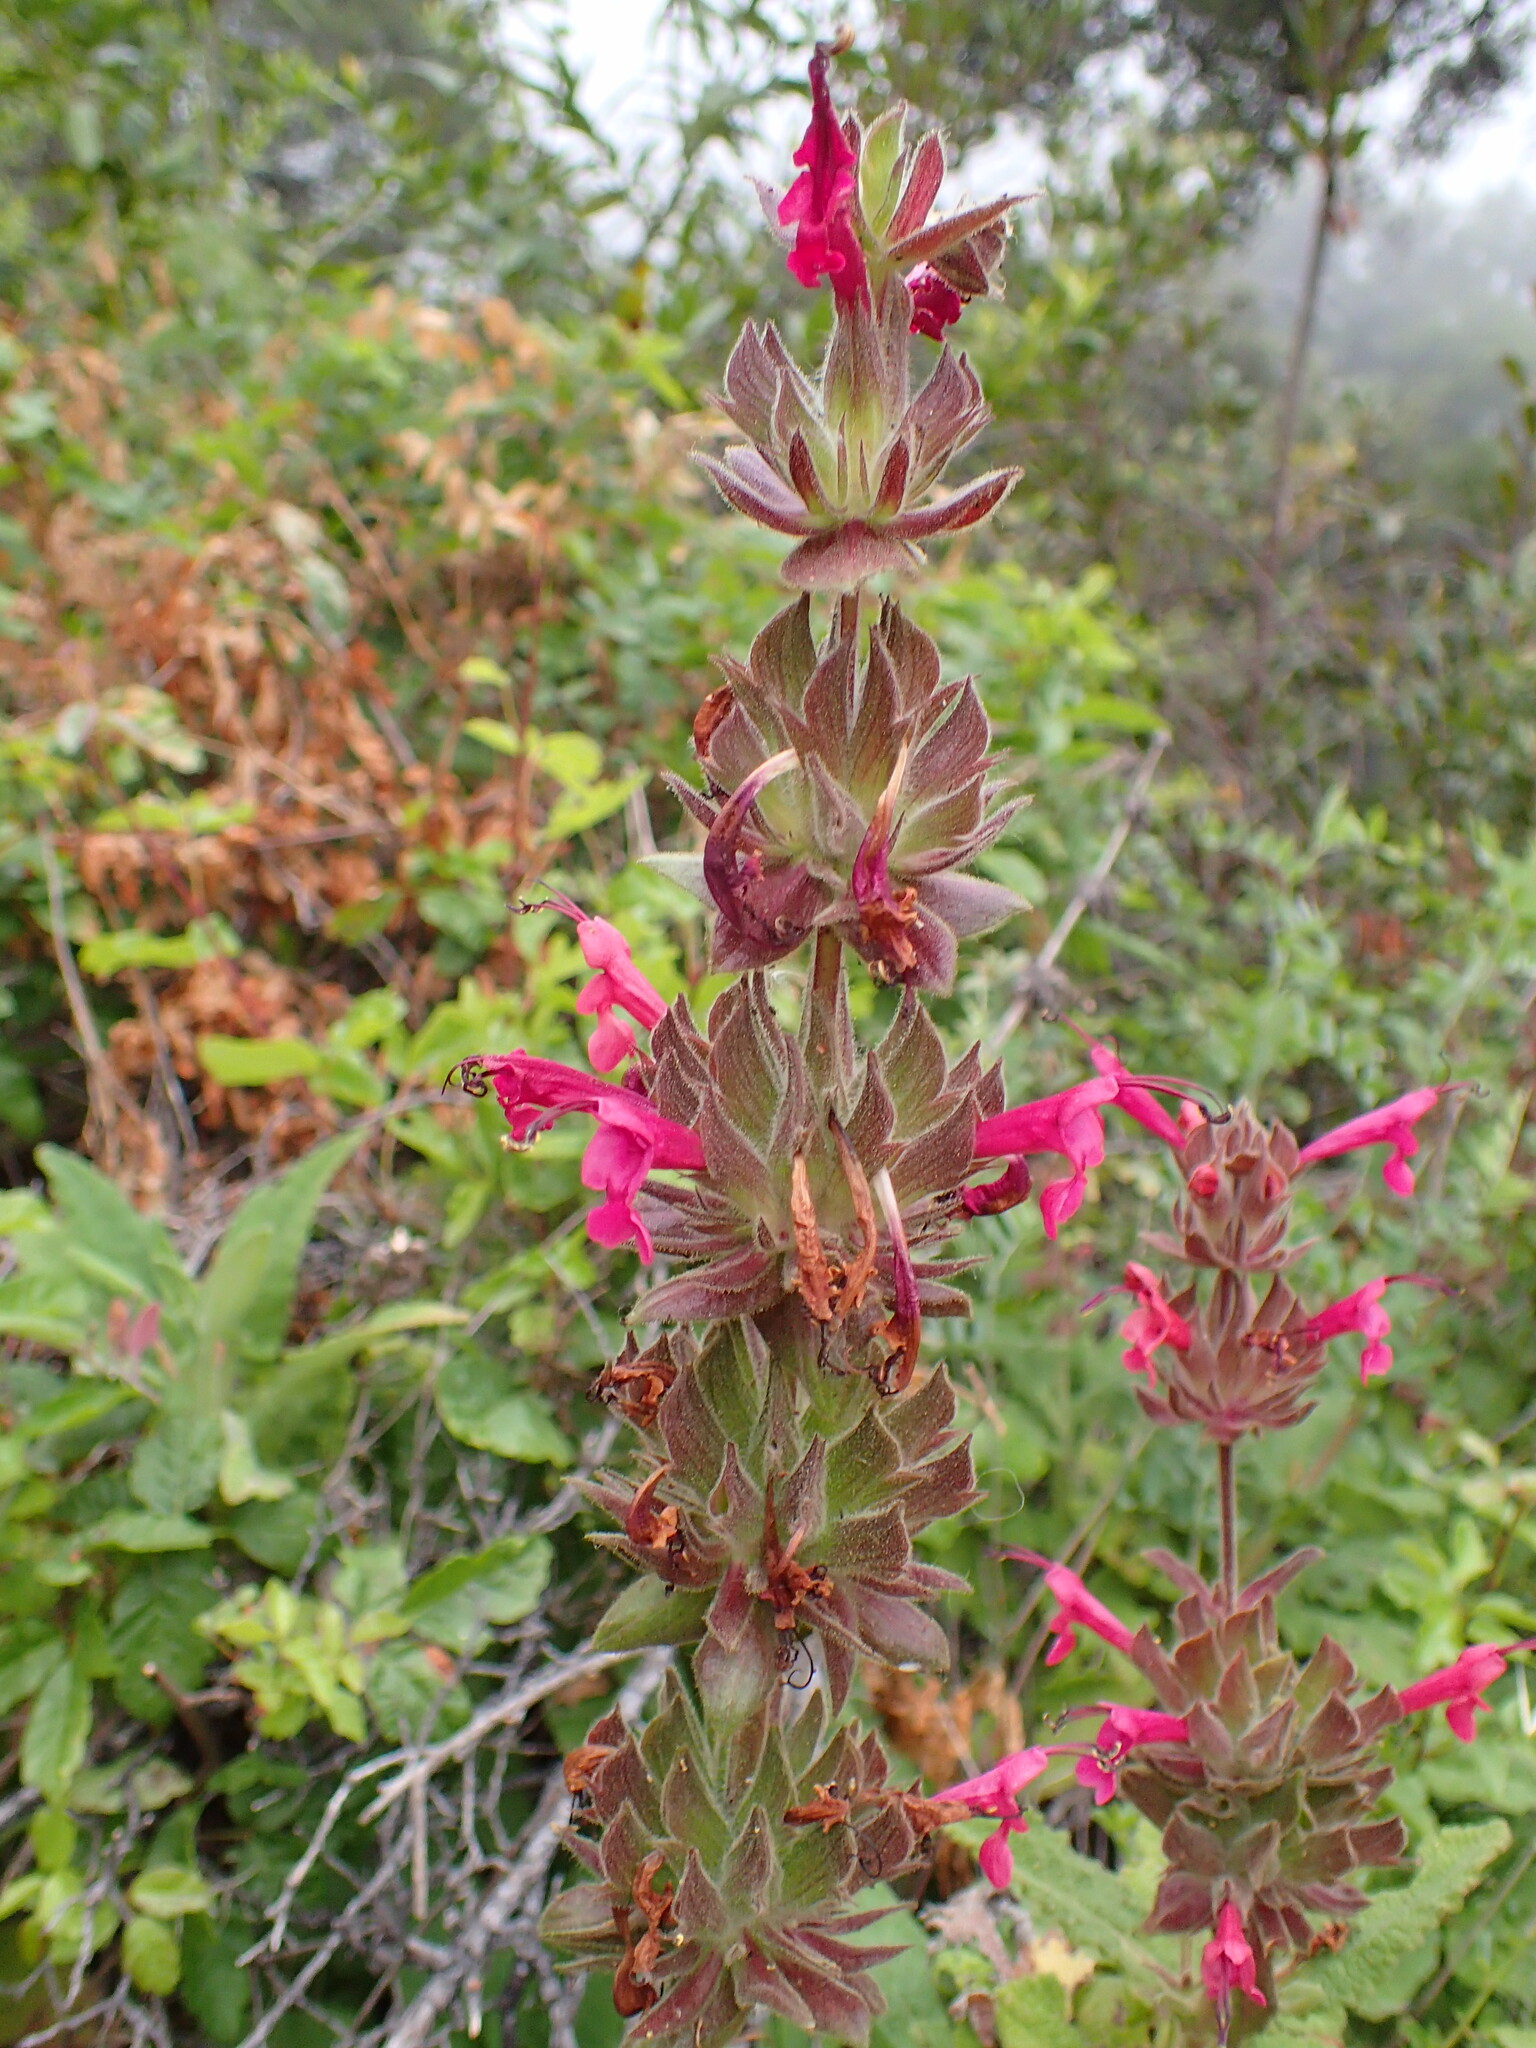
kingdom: Plantae
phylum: Tracheophyta
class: Magnoliopsida
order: Lamiales
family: Lamiaceae
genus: Salvia
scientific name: Salvia spathacea
